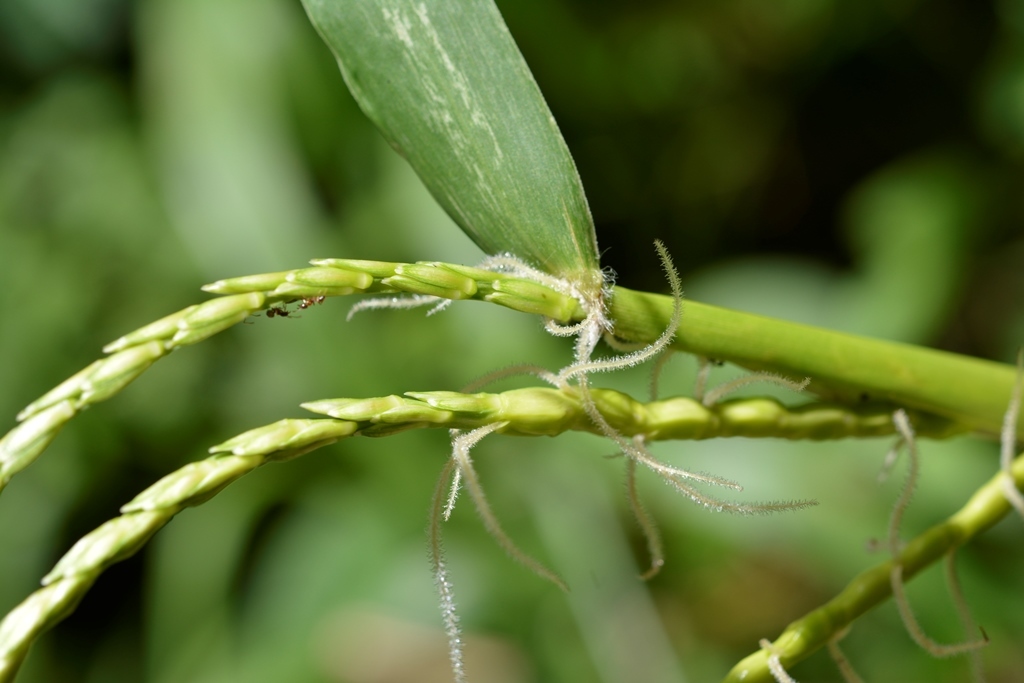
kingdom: Plantae
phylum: Tracheophyta
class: Liliopsida
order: Poales
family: Poaceae
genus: Tripsacum
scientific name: Tripsacum jalapense
